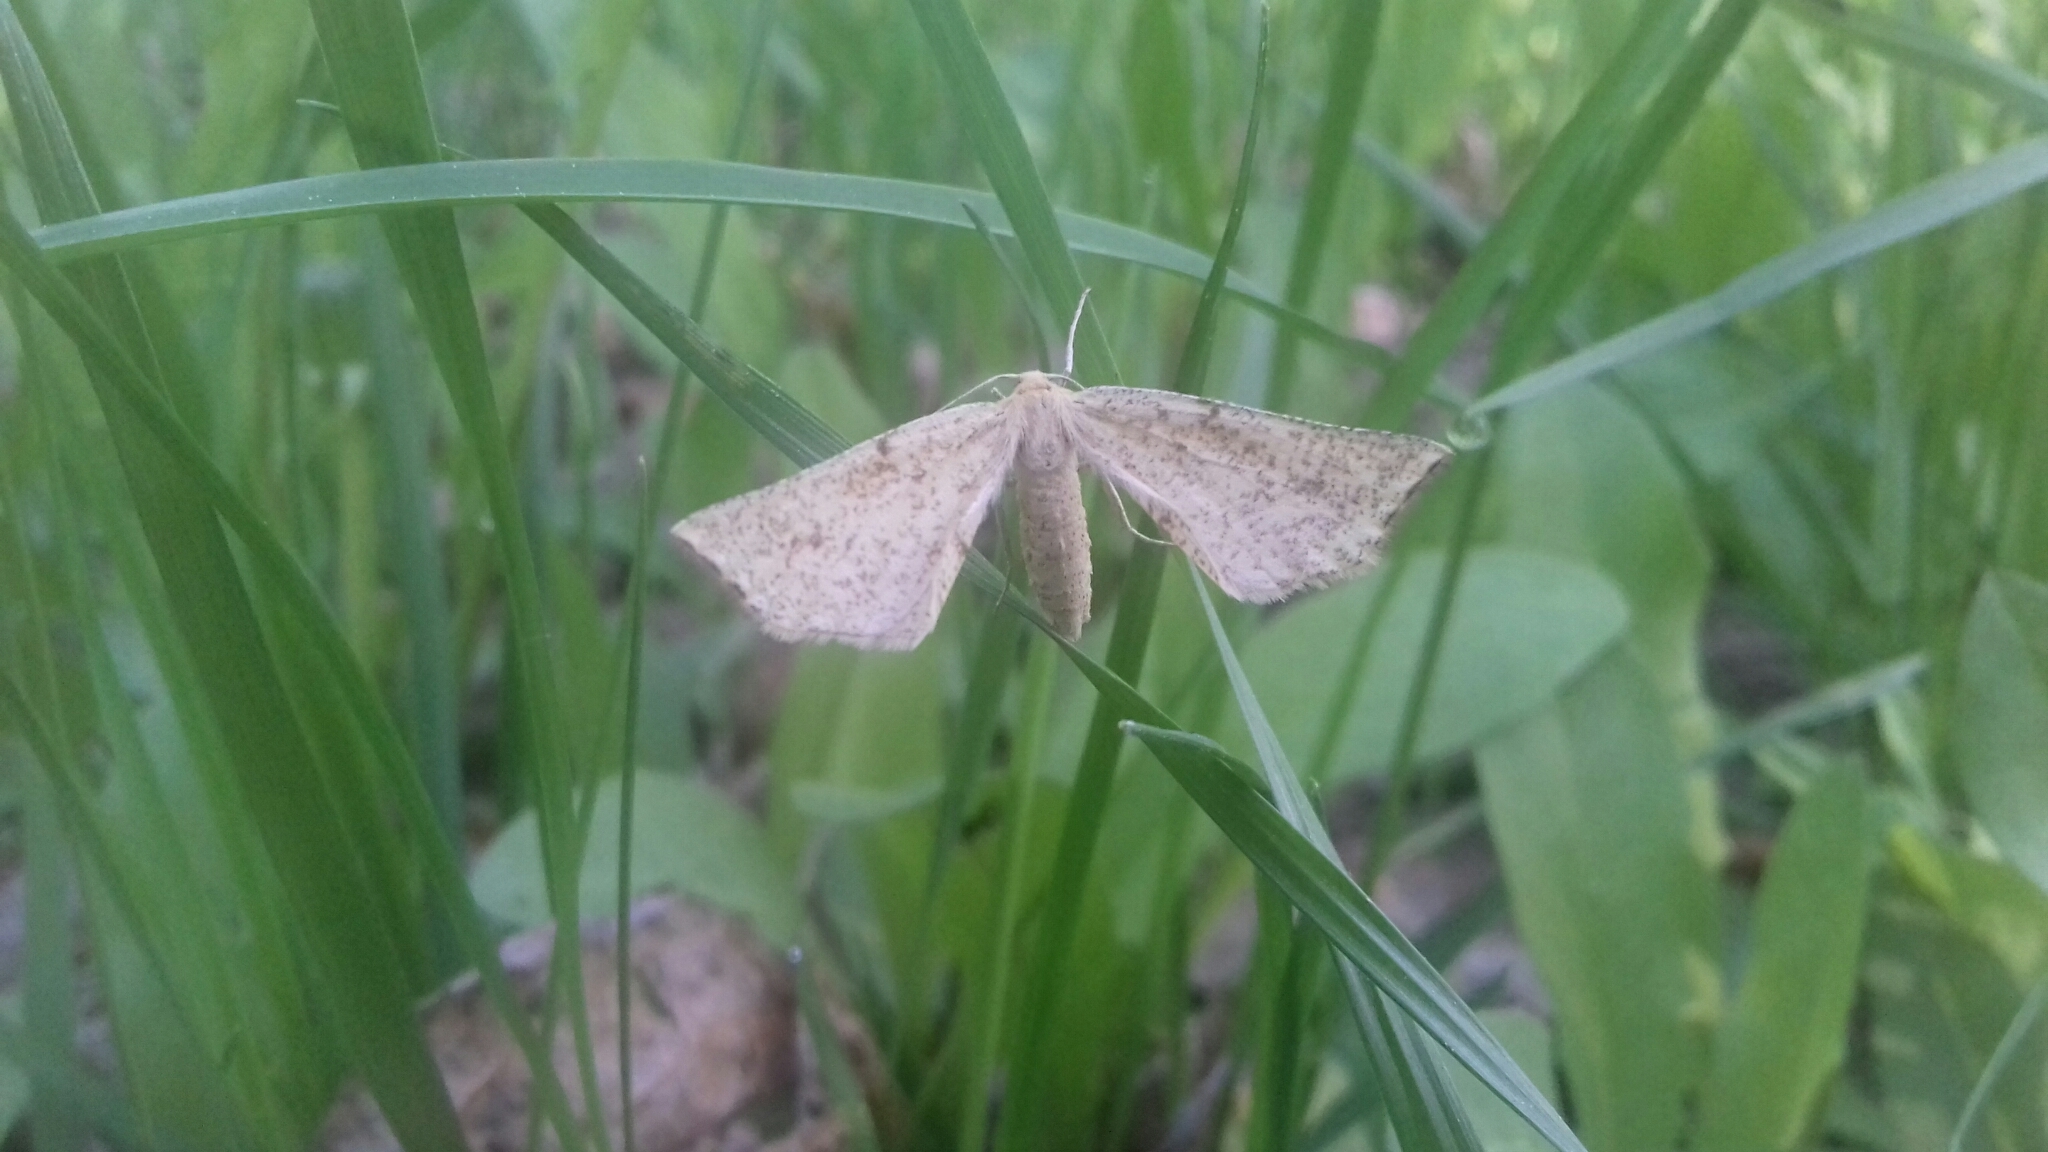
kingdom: Animalia
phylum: Arthropoda
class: Insecta
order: Lepidoptera
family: Geometridae
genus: Hypoxystis
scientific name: Hypoxystis pluviaria
